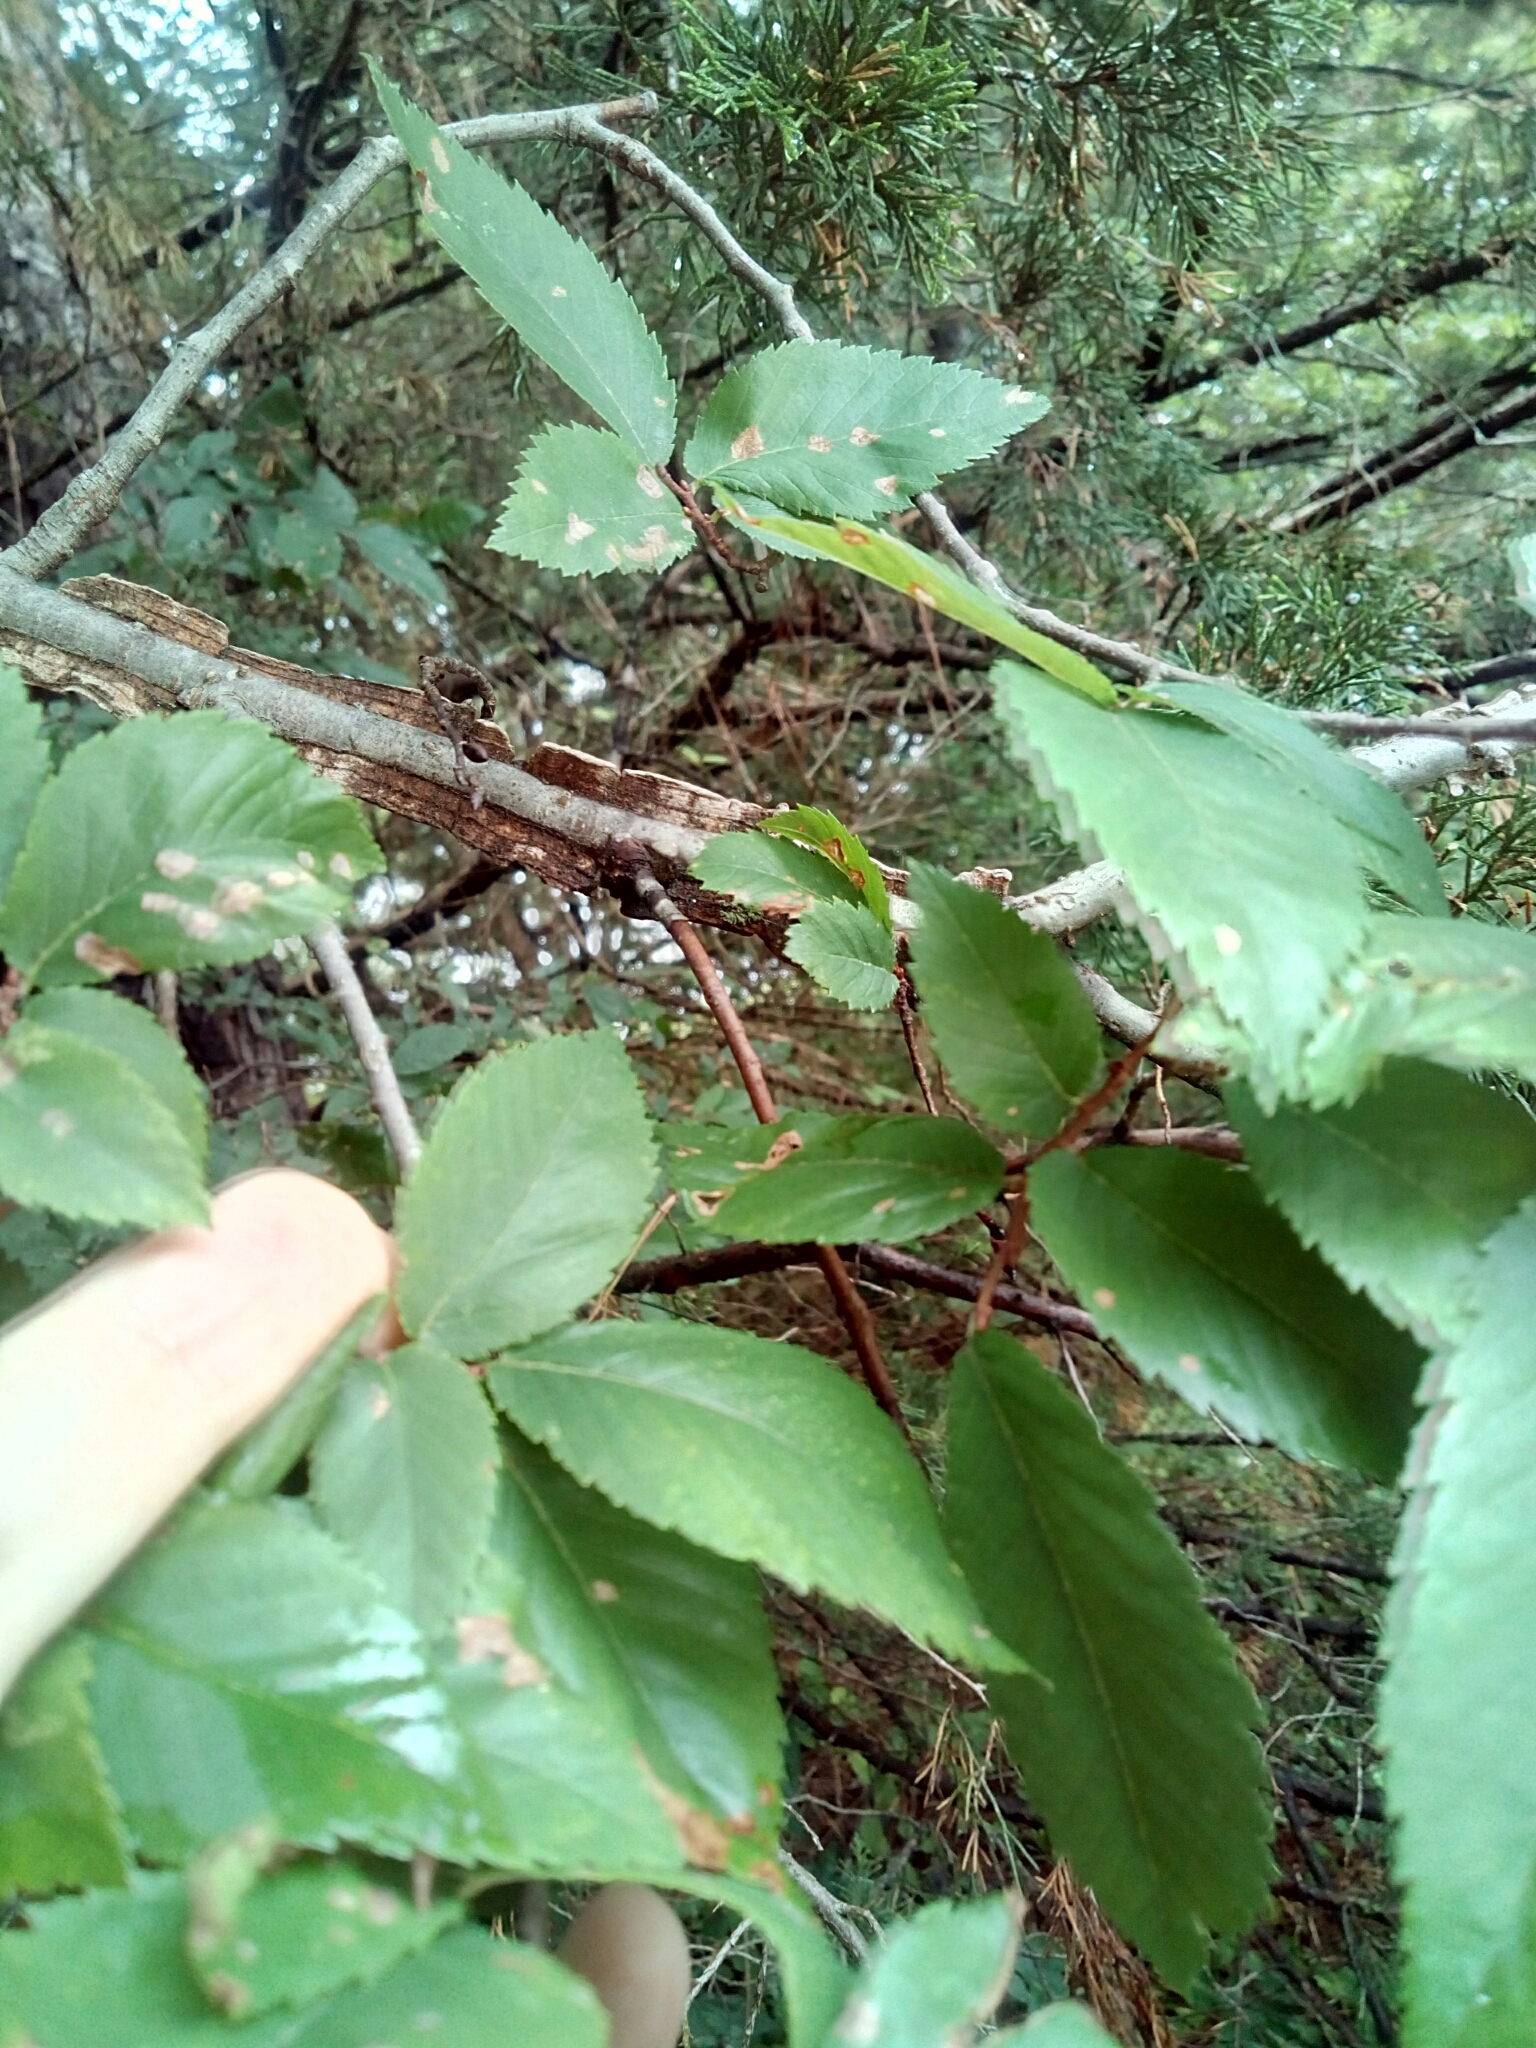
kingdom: Plantae
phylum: Tracheophyta
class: Magnoliopsida
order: Rosales
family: Ulmaceae
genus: Ulmus
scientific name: Ulmus alata
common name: Winged elm
